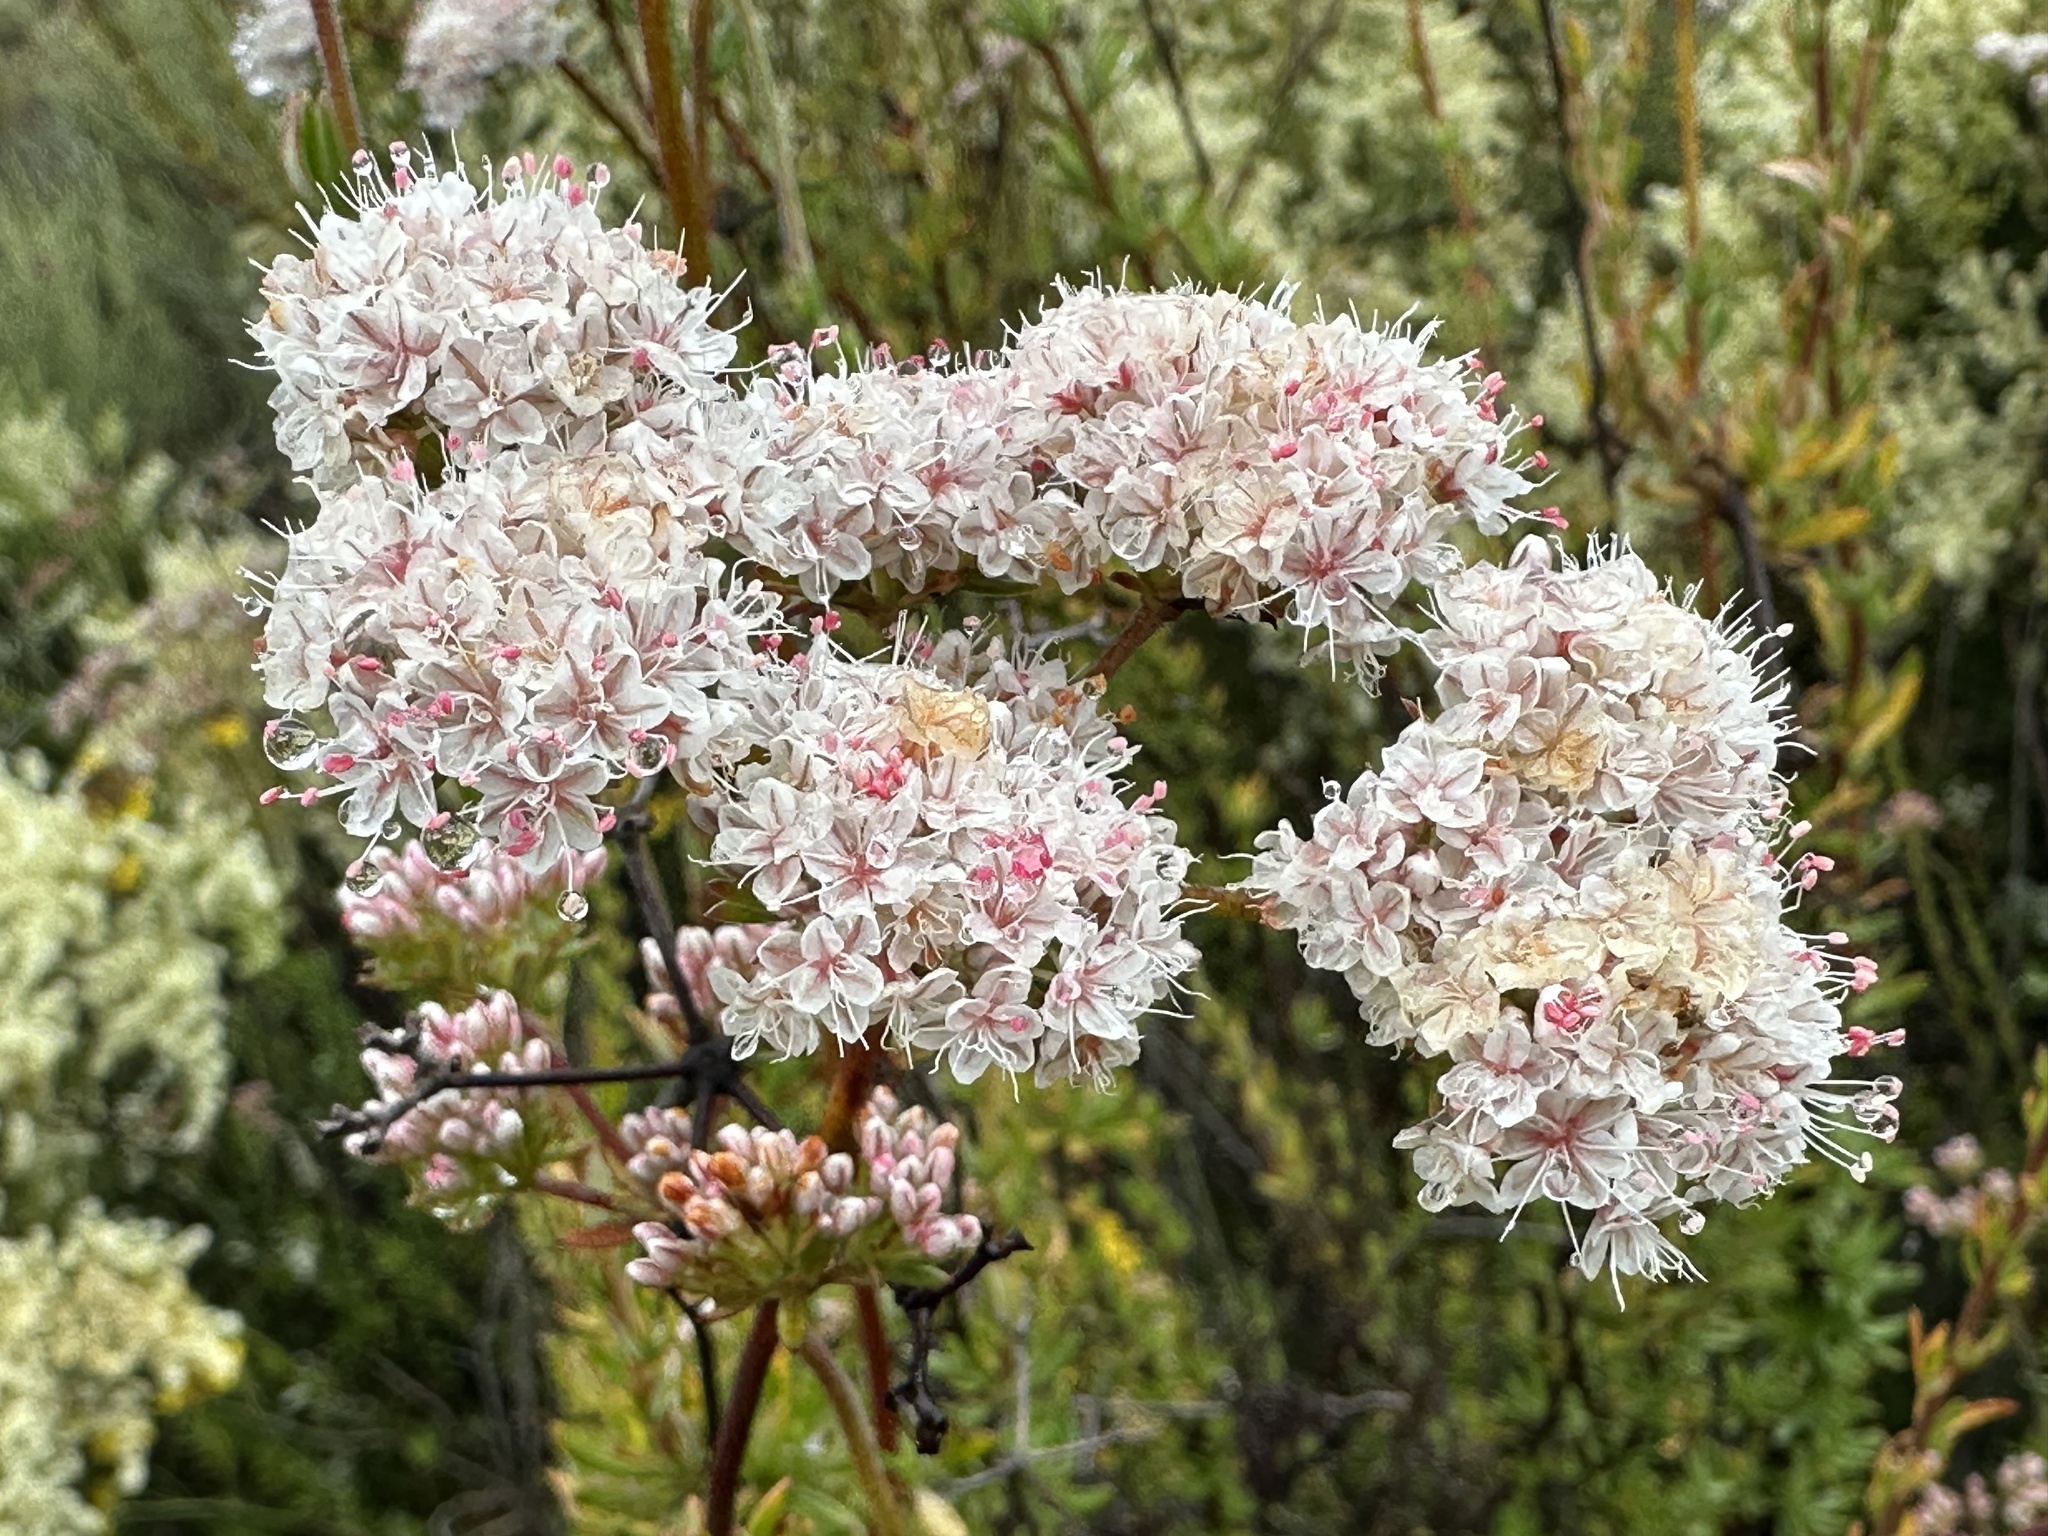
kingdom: Plantae
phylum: Tracheophyta
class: Magnoliopsida
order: Caryophyllales
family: Polygonaceae
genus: Eriogonum
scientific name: Eriogonum fasciculatum
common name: California wild buckwheat
